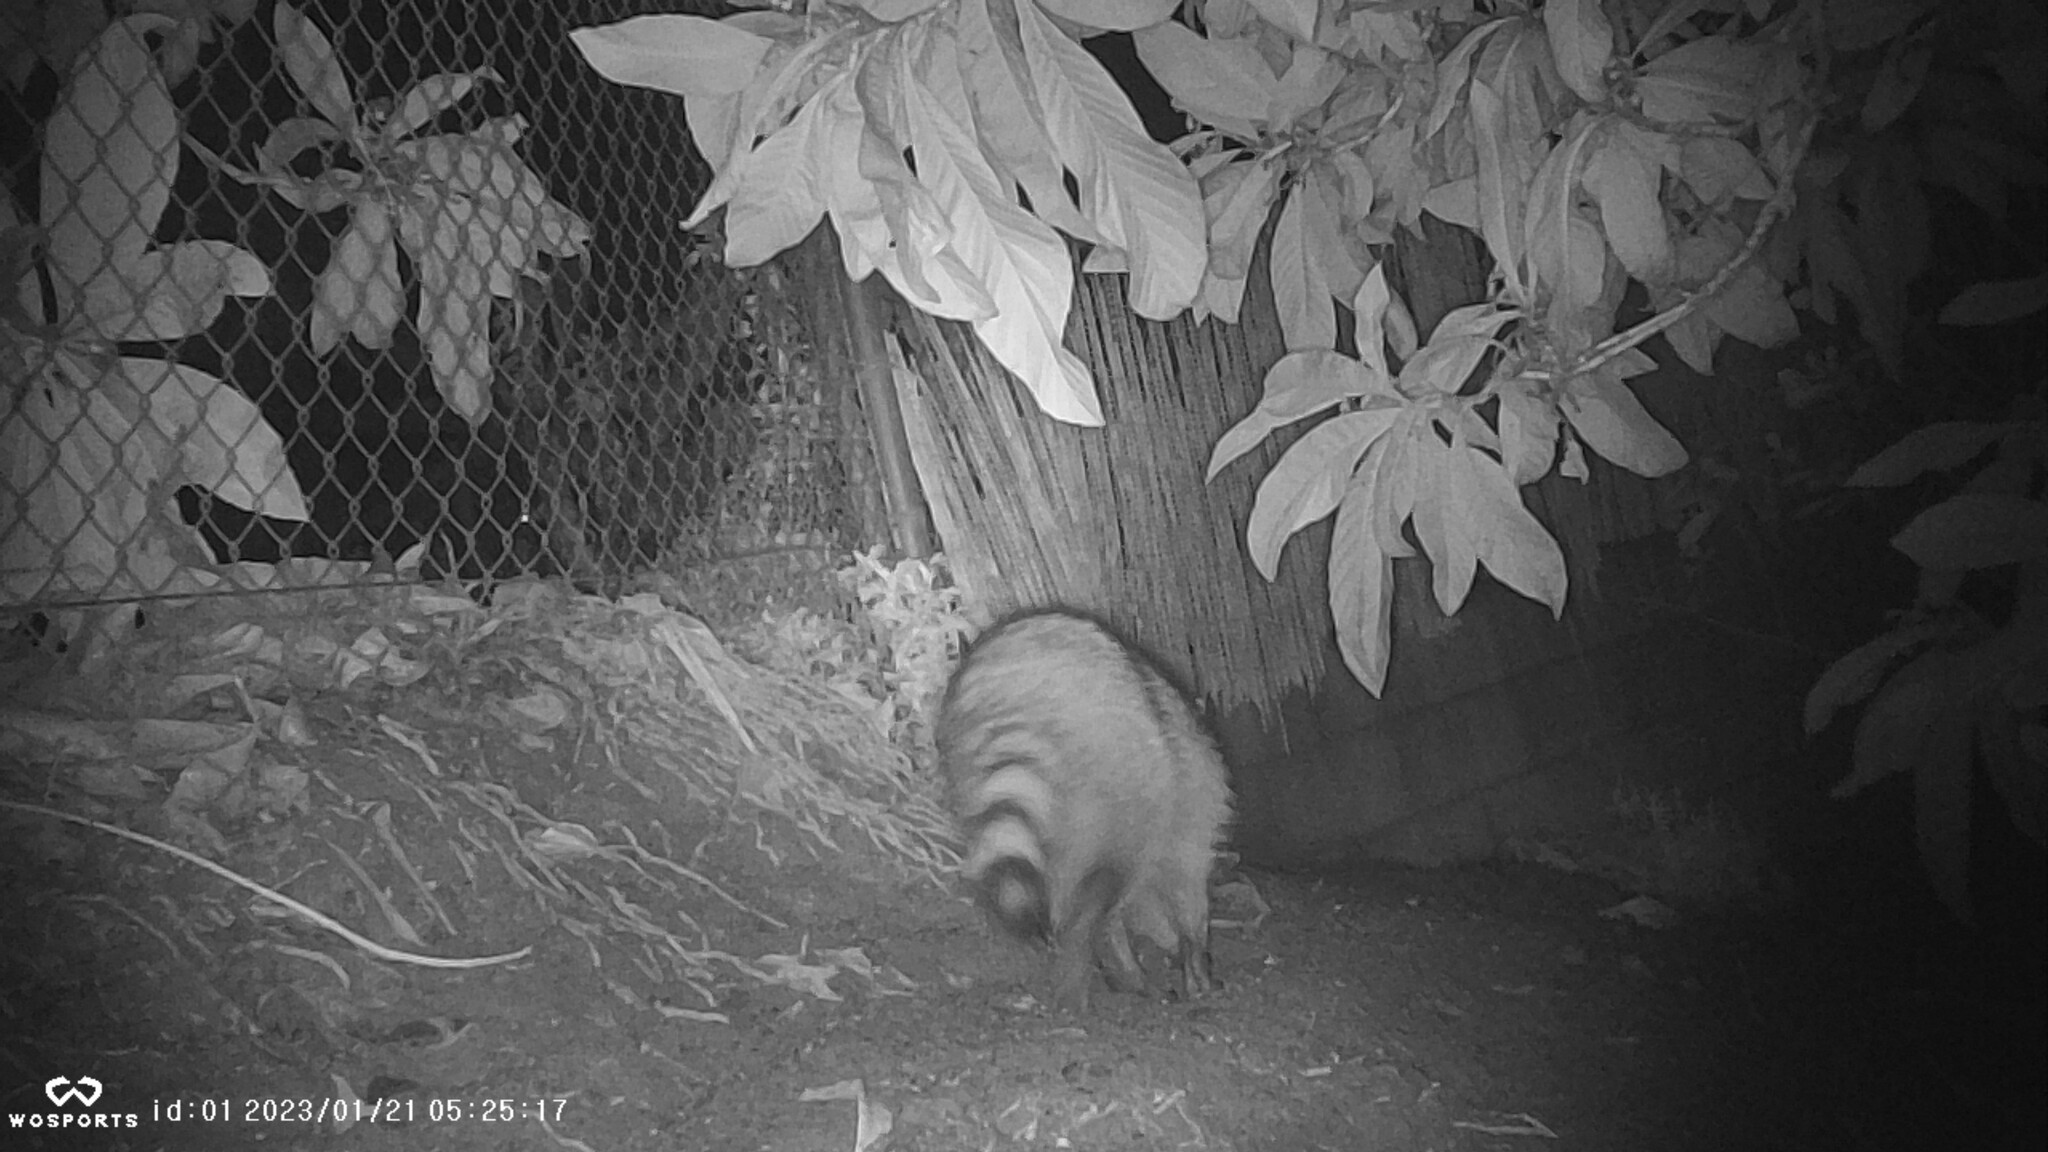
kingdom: Animalia
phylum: Chordata
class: Mammalia
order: Carnivora
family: Procyonidae
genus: Procyon
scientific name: Procyon lotor
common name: Raccoon
